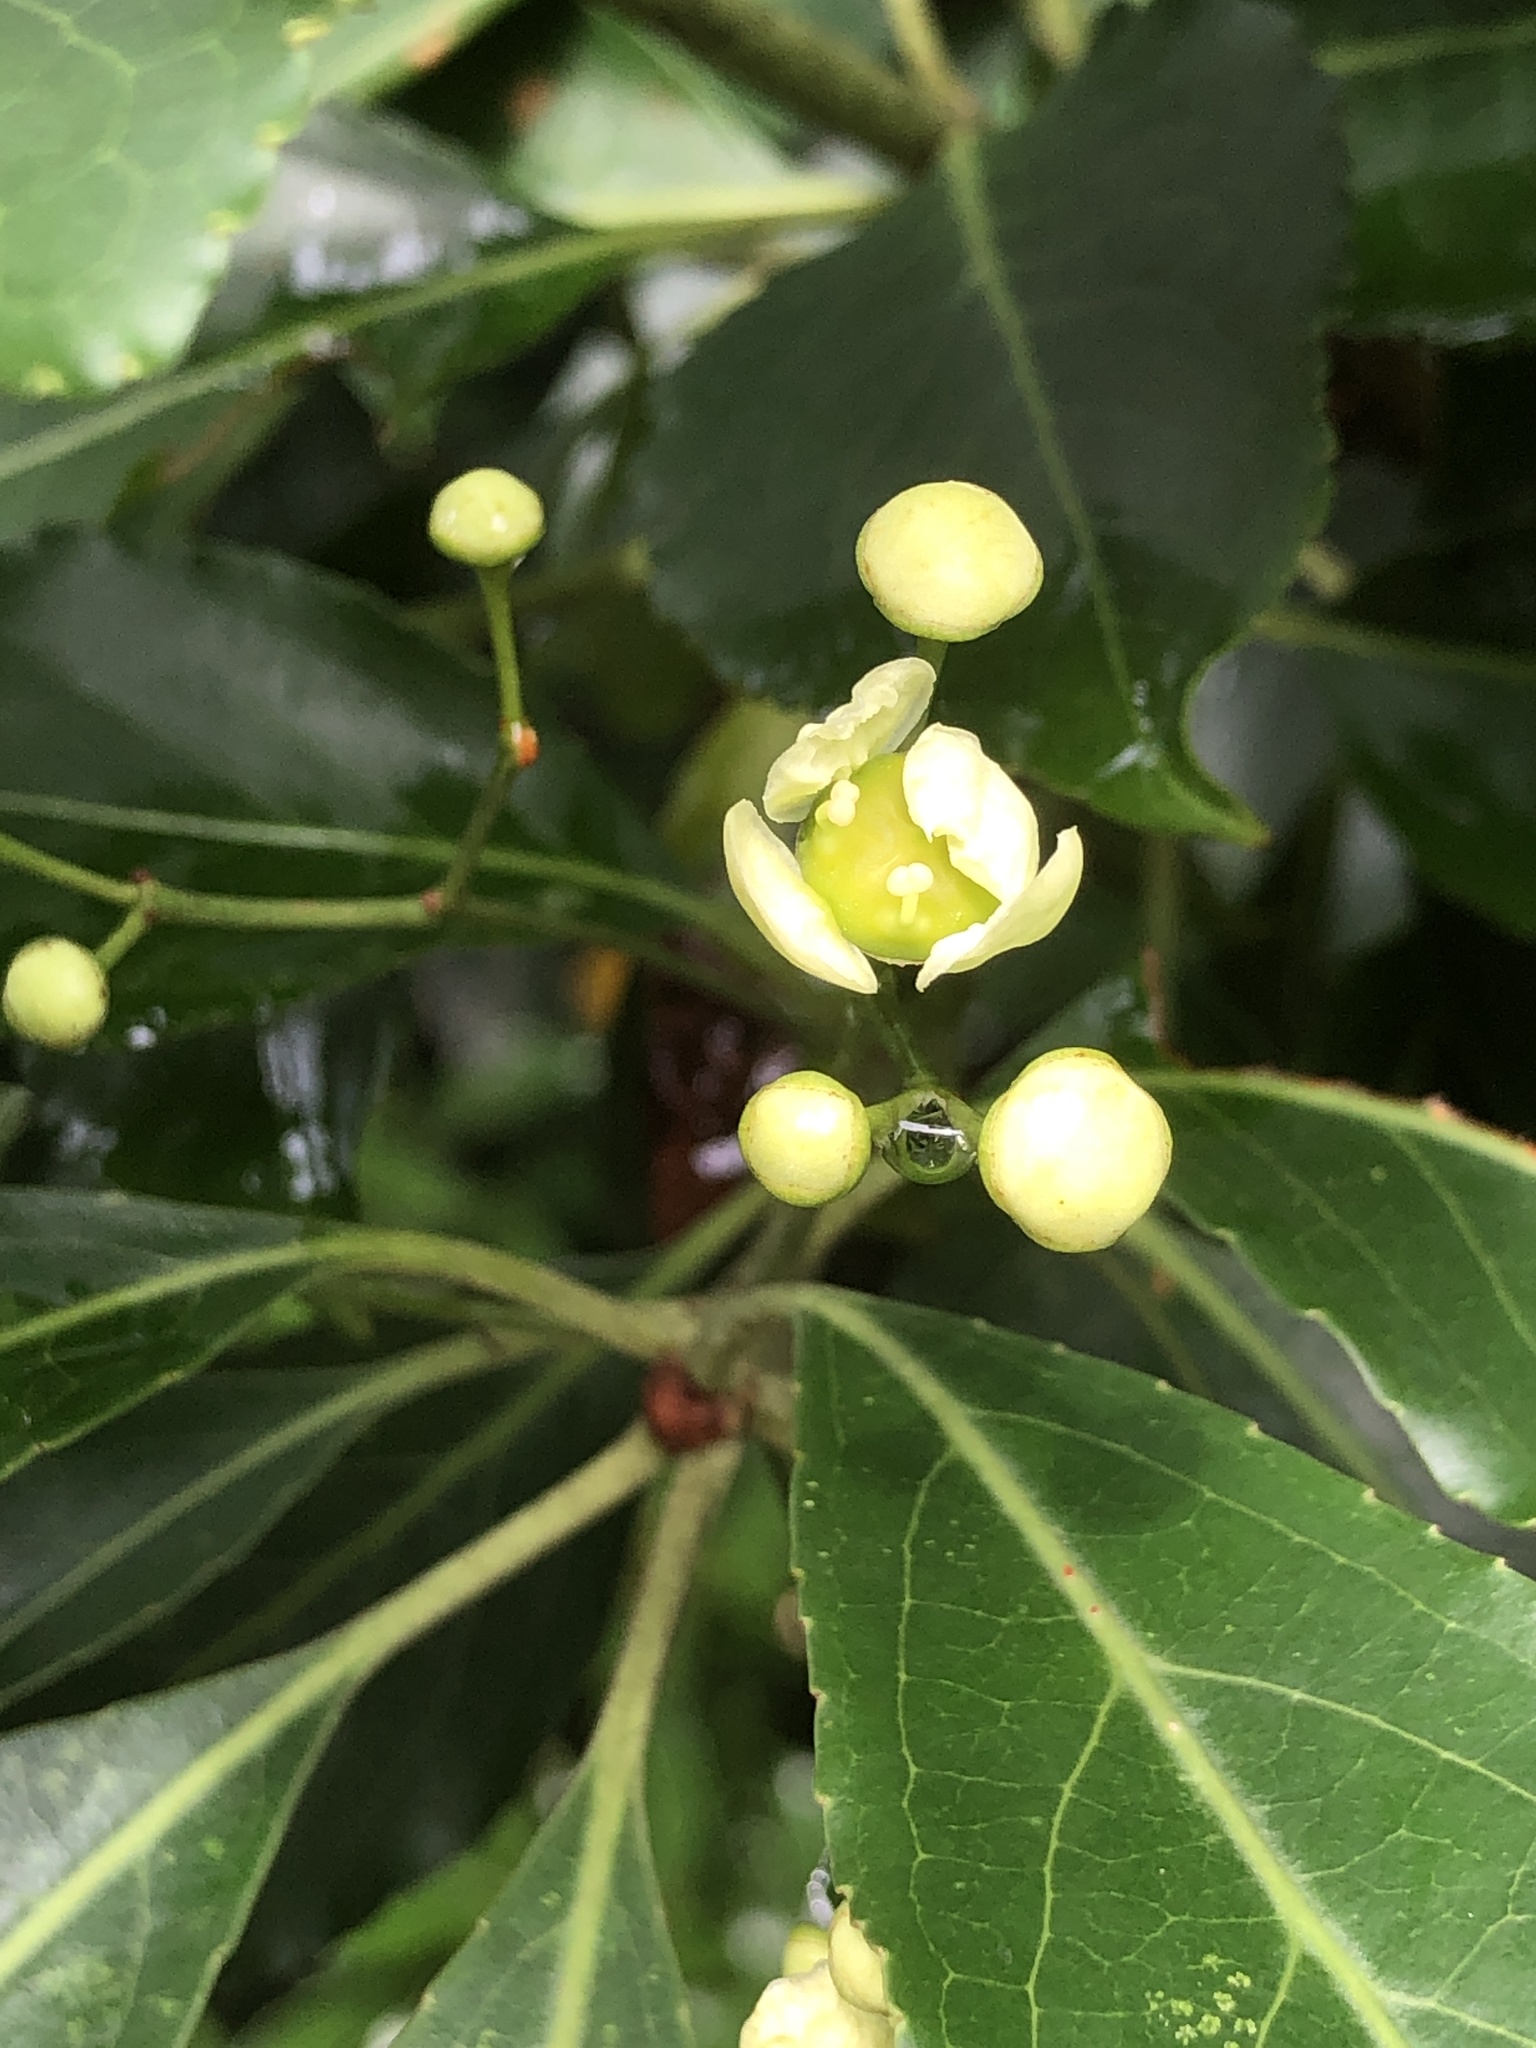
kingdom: Plantae
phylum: Tracheophyta
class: Magnoliopsida
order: Celastrales
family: Celastraceae
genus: Euonymus
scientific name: Euonymus carnosus
